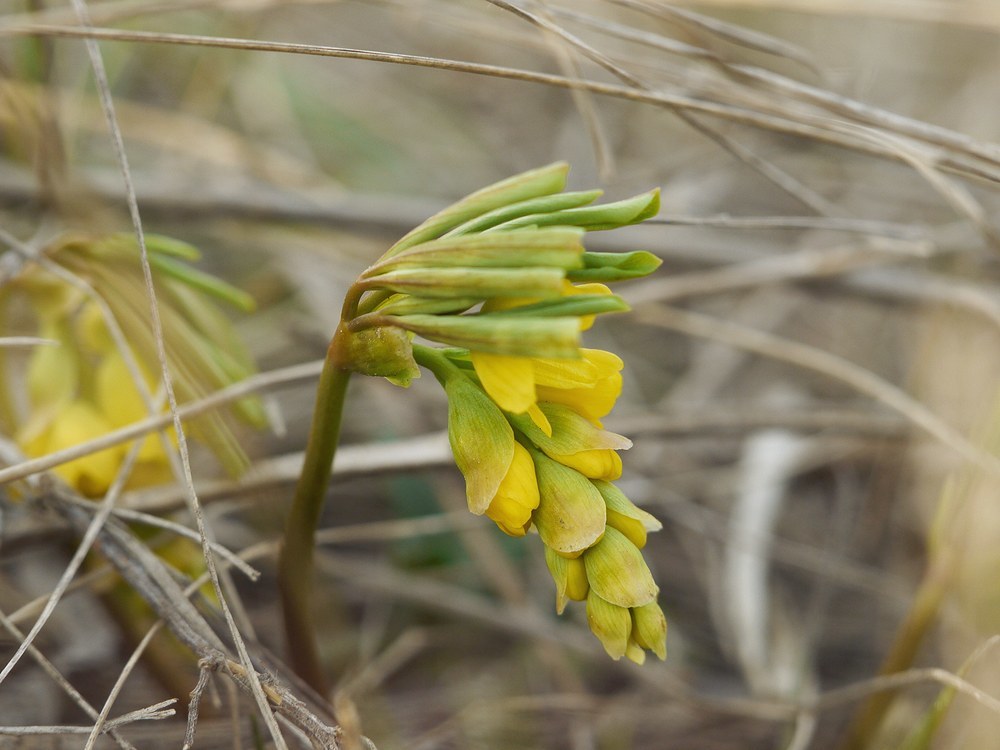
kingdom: Plantae
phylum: Tracheophyta
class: Magnoliopsida
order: Ranunculales
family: Berberidaceae
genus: Gymnospermium
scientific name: Gymnospermium odessanum
